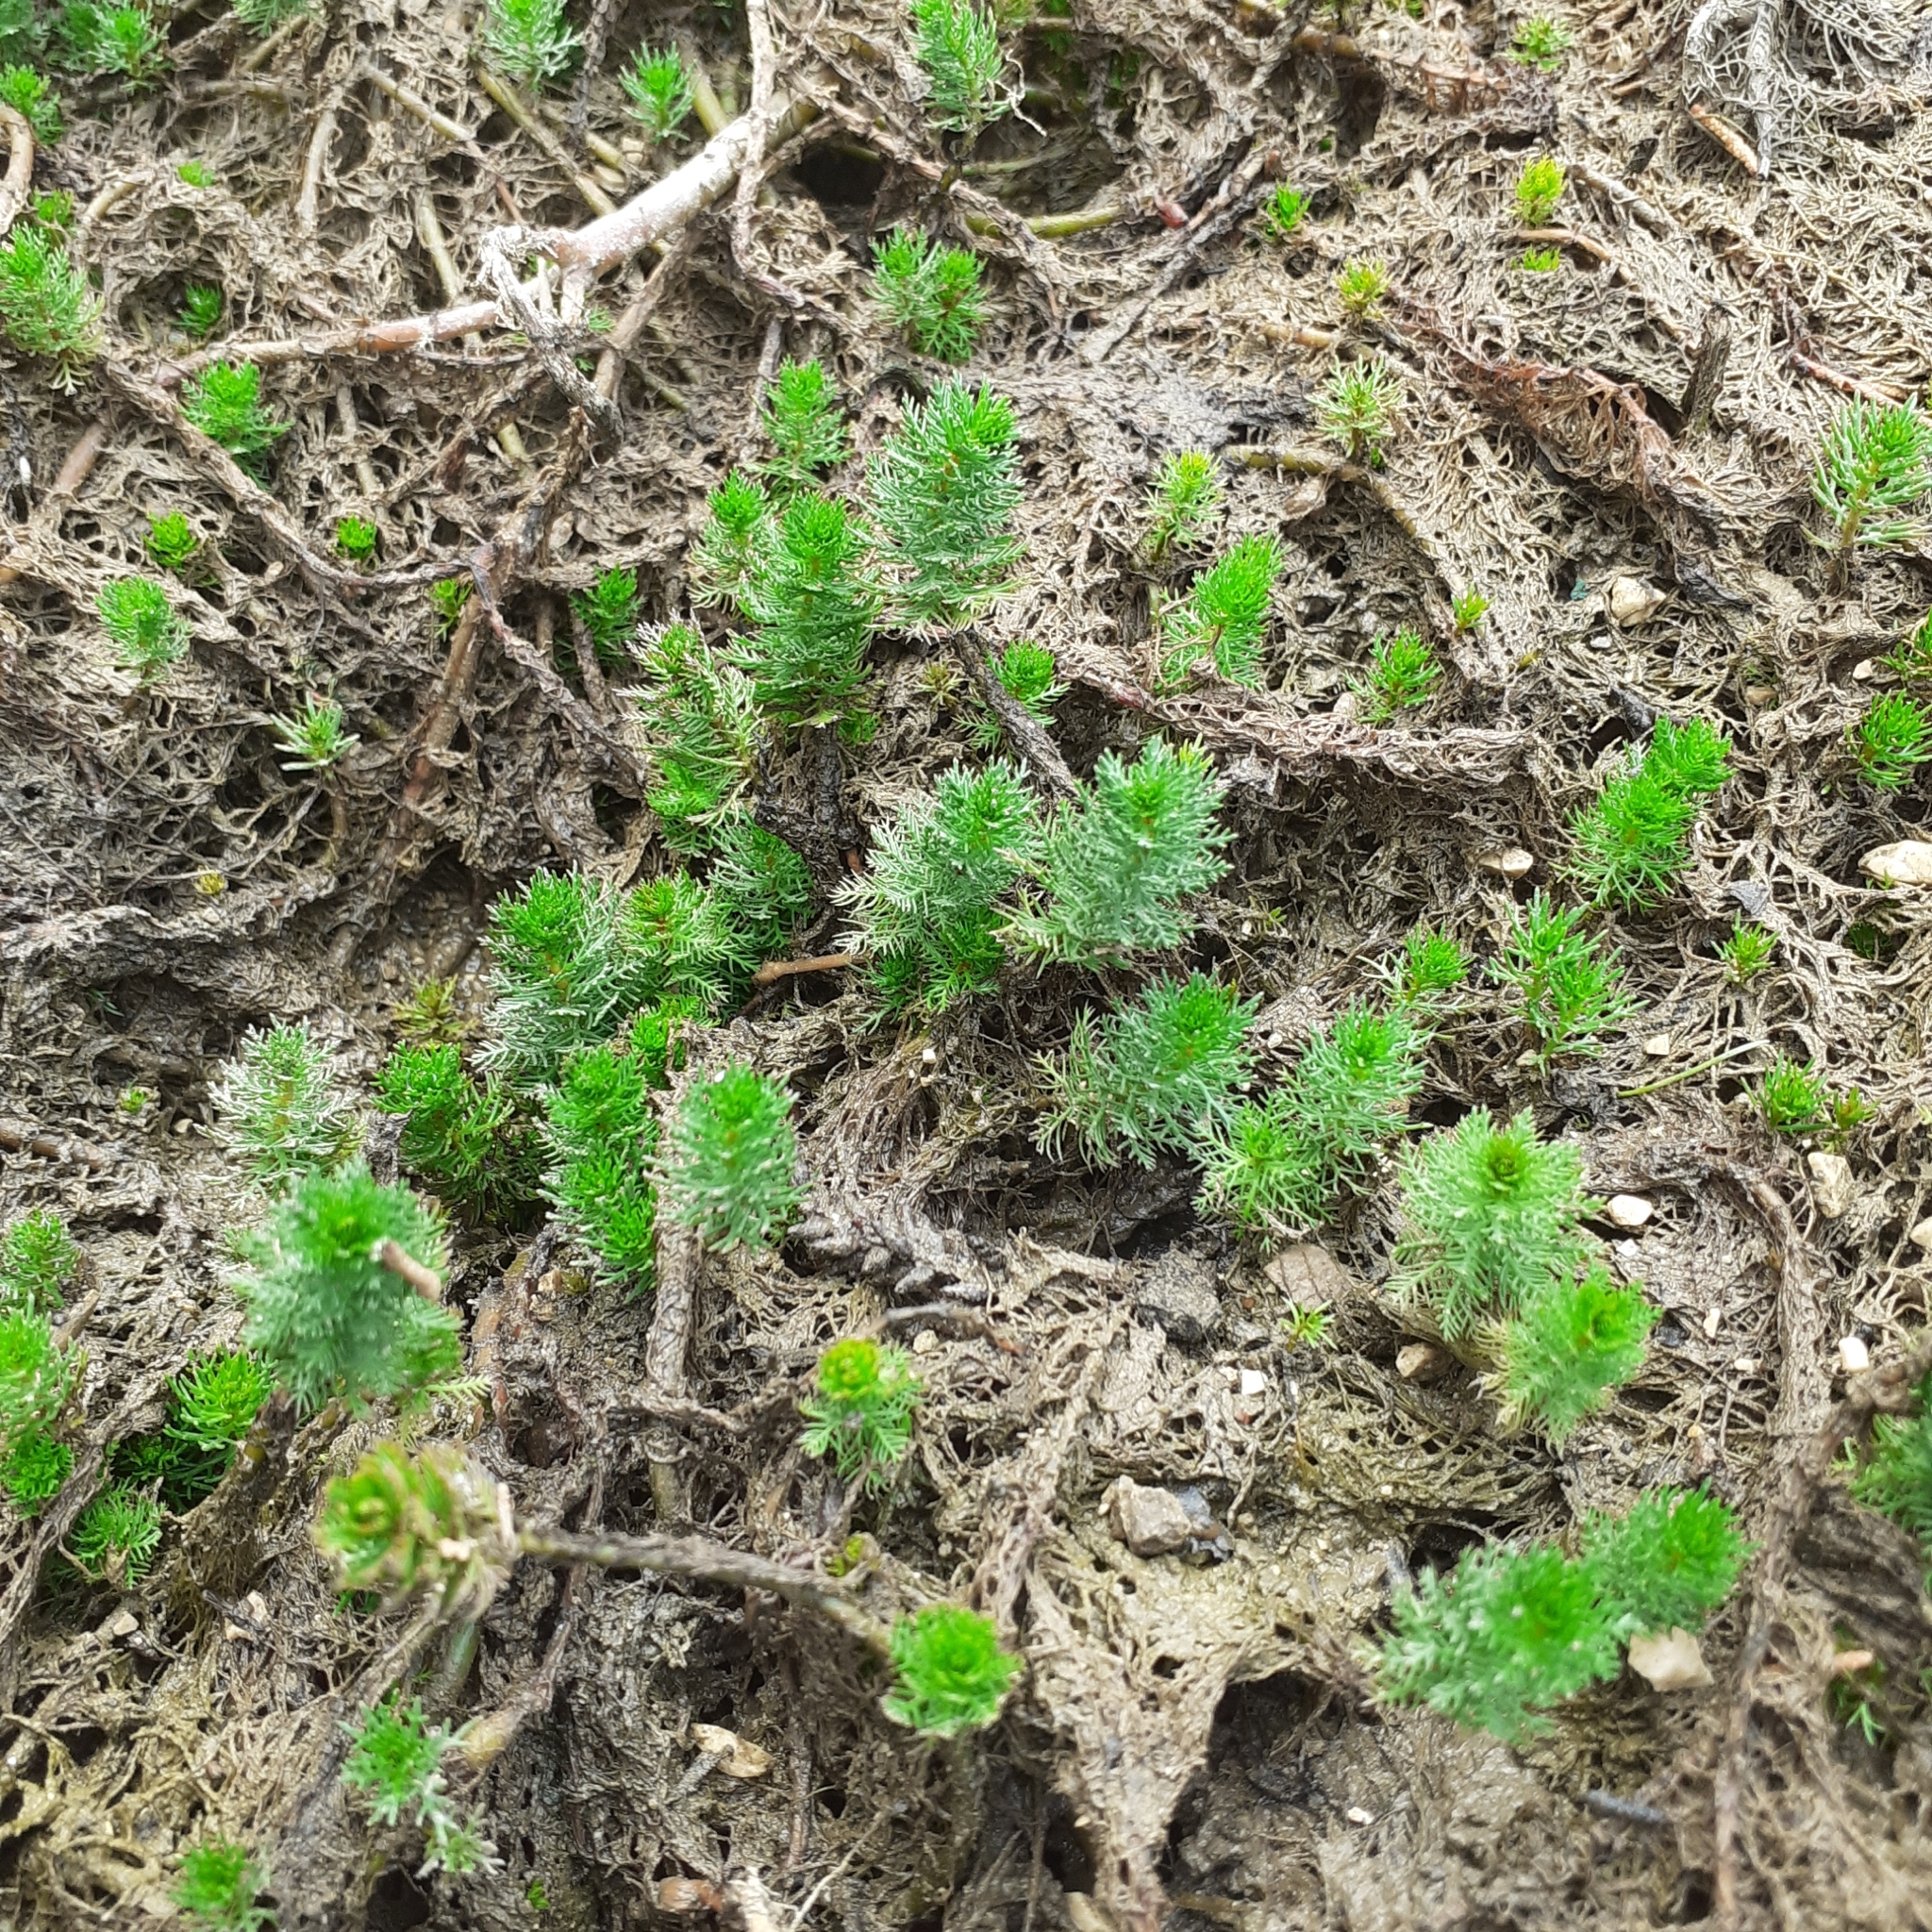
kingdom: Plantae
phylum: Tracheophyta
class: Magnoliopsida
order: Saxifragales
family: Haloragaceae
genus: Myriophyllum
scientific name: Myriophyllum verticillatum
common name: Whorled water-milfoil
